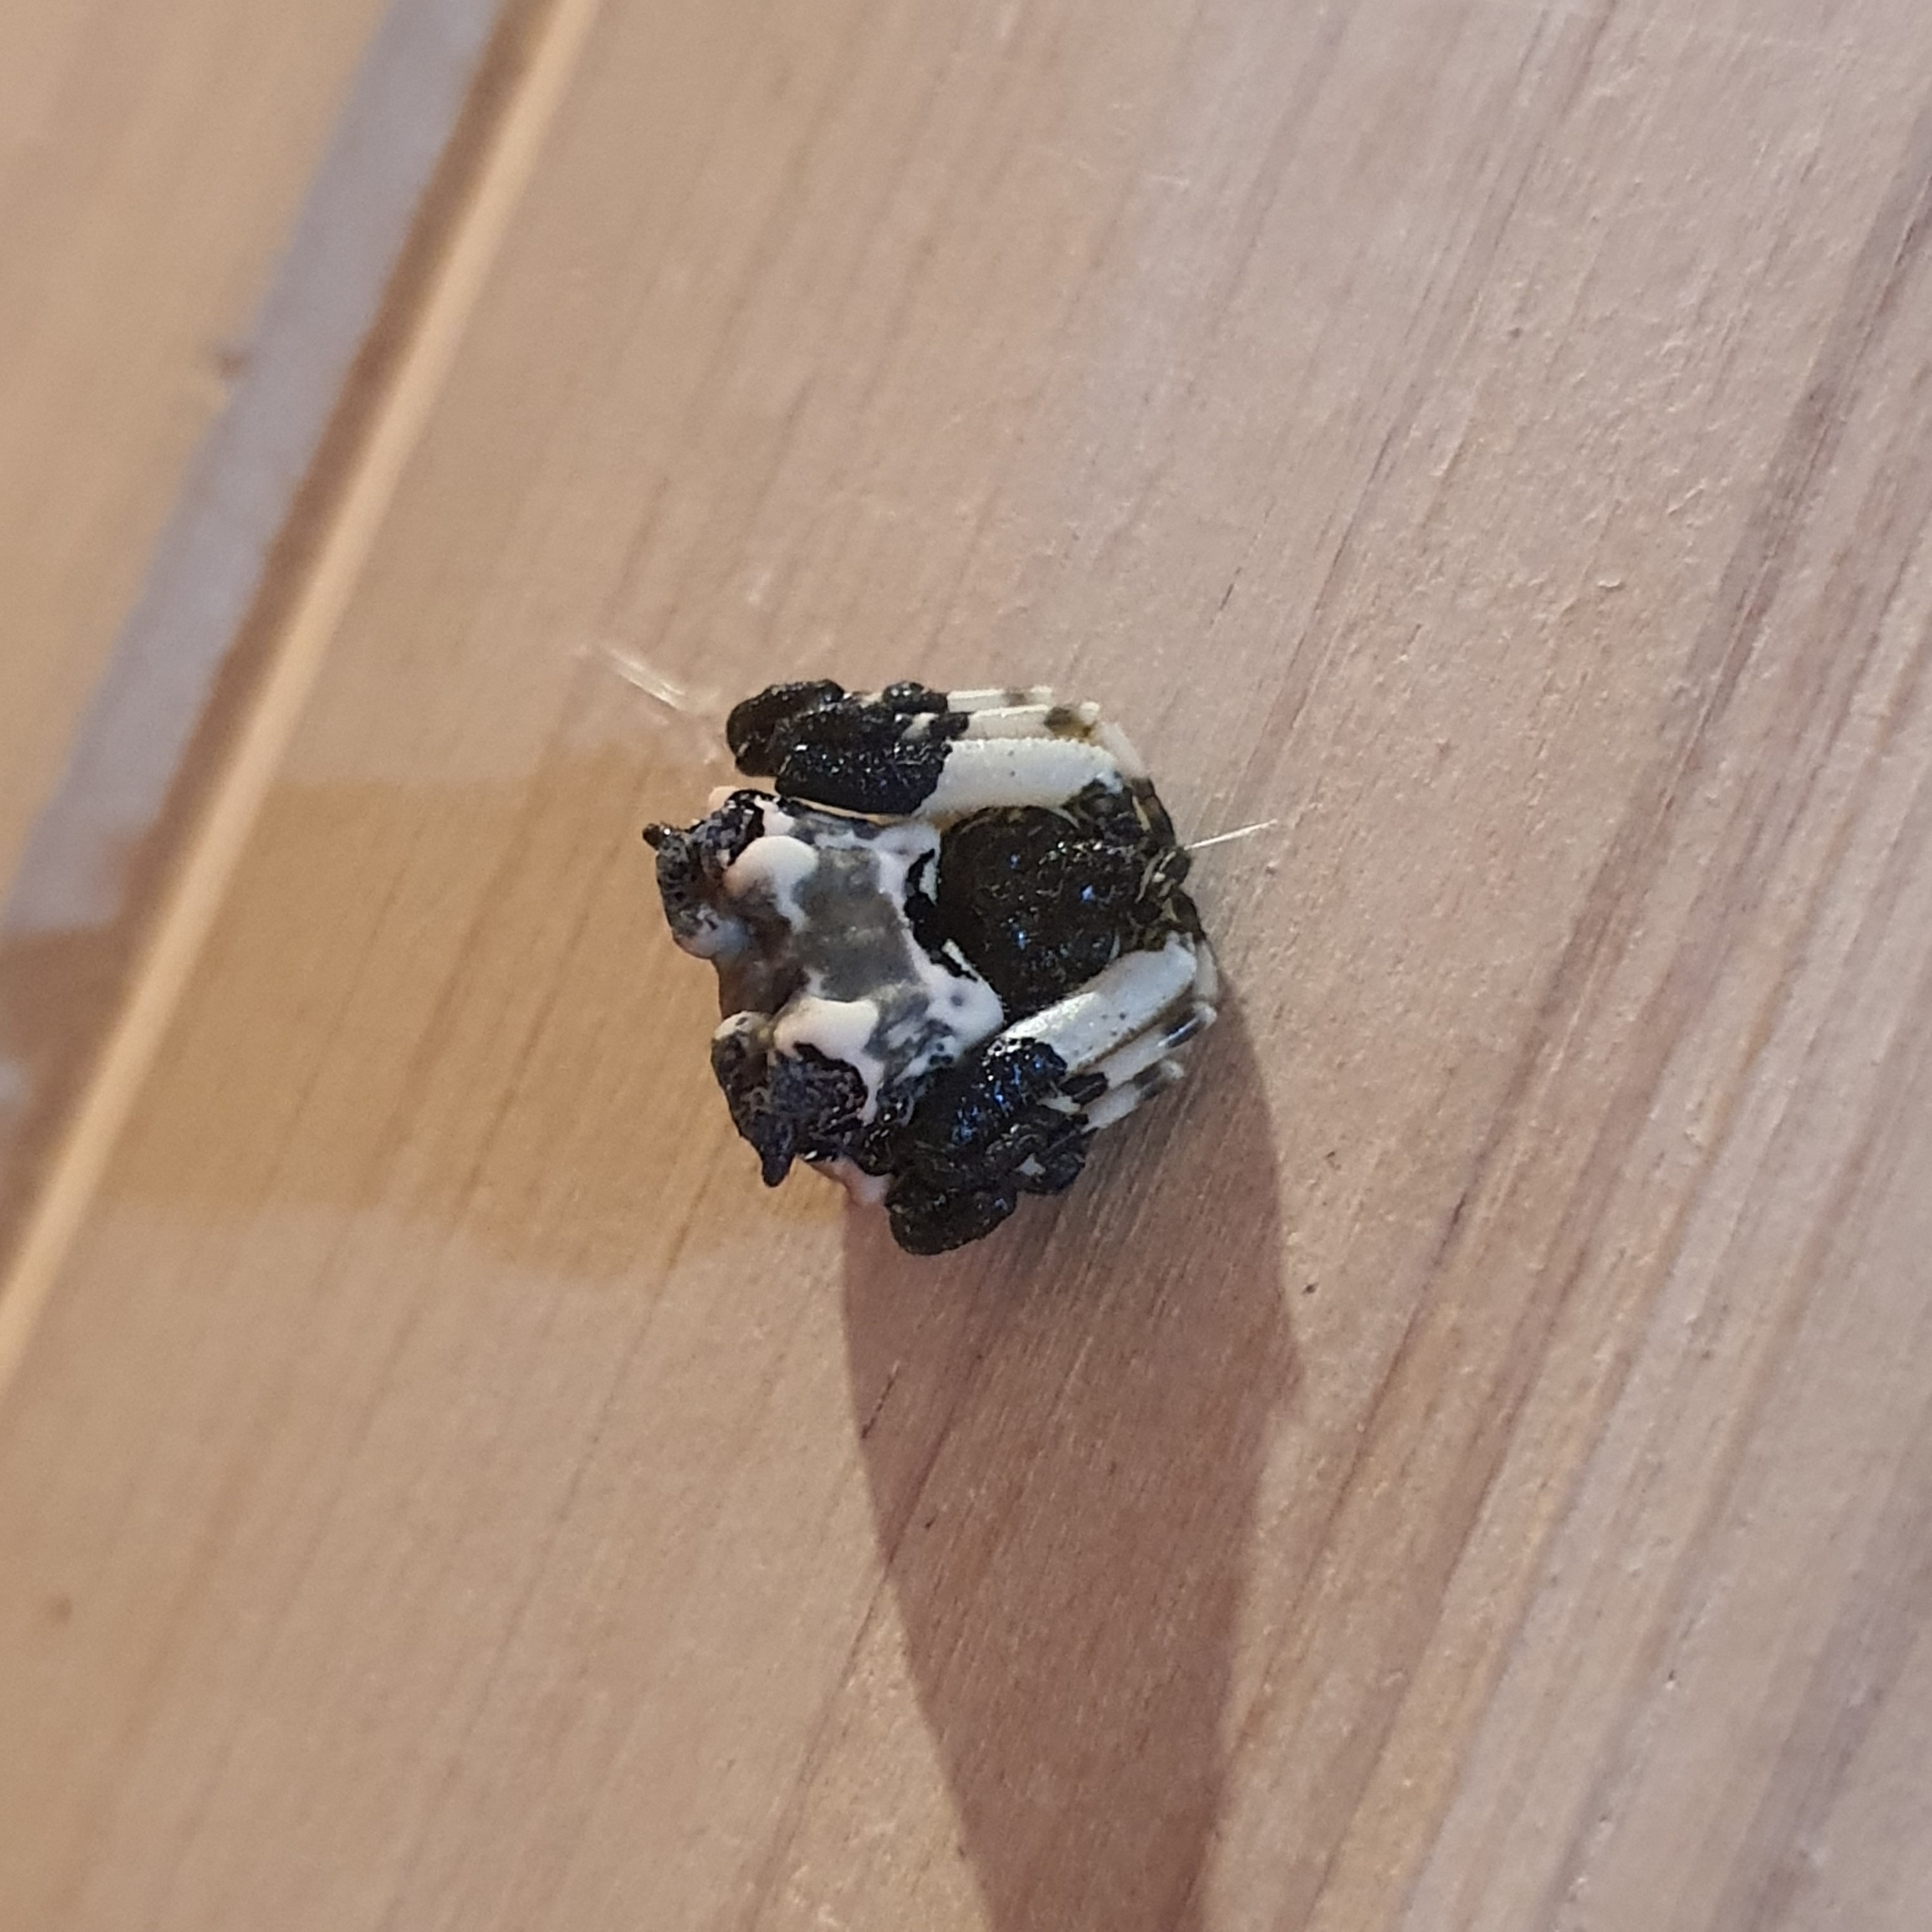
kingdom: Animalia
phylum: Arthropoda
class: Arachnida
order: Araneae
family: Araneidae
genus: Celaenia
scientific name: Celaenia excavata
